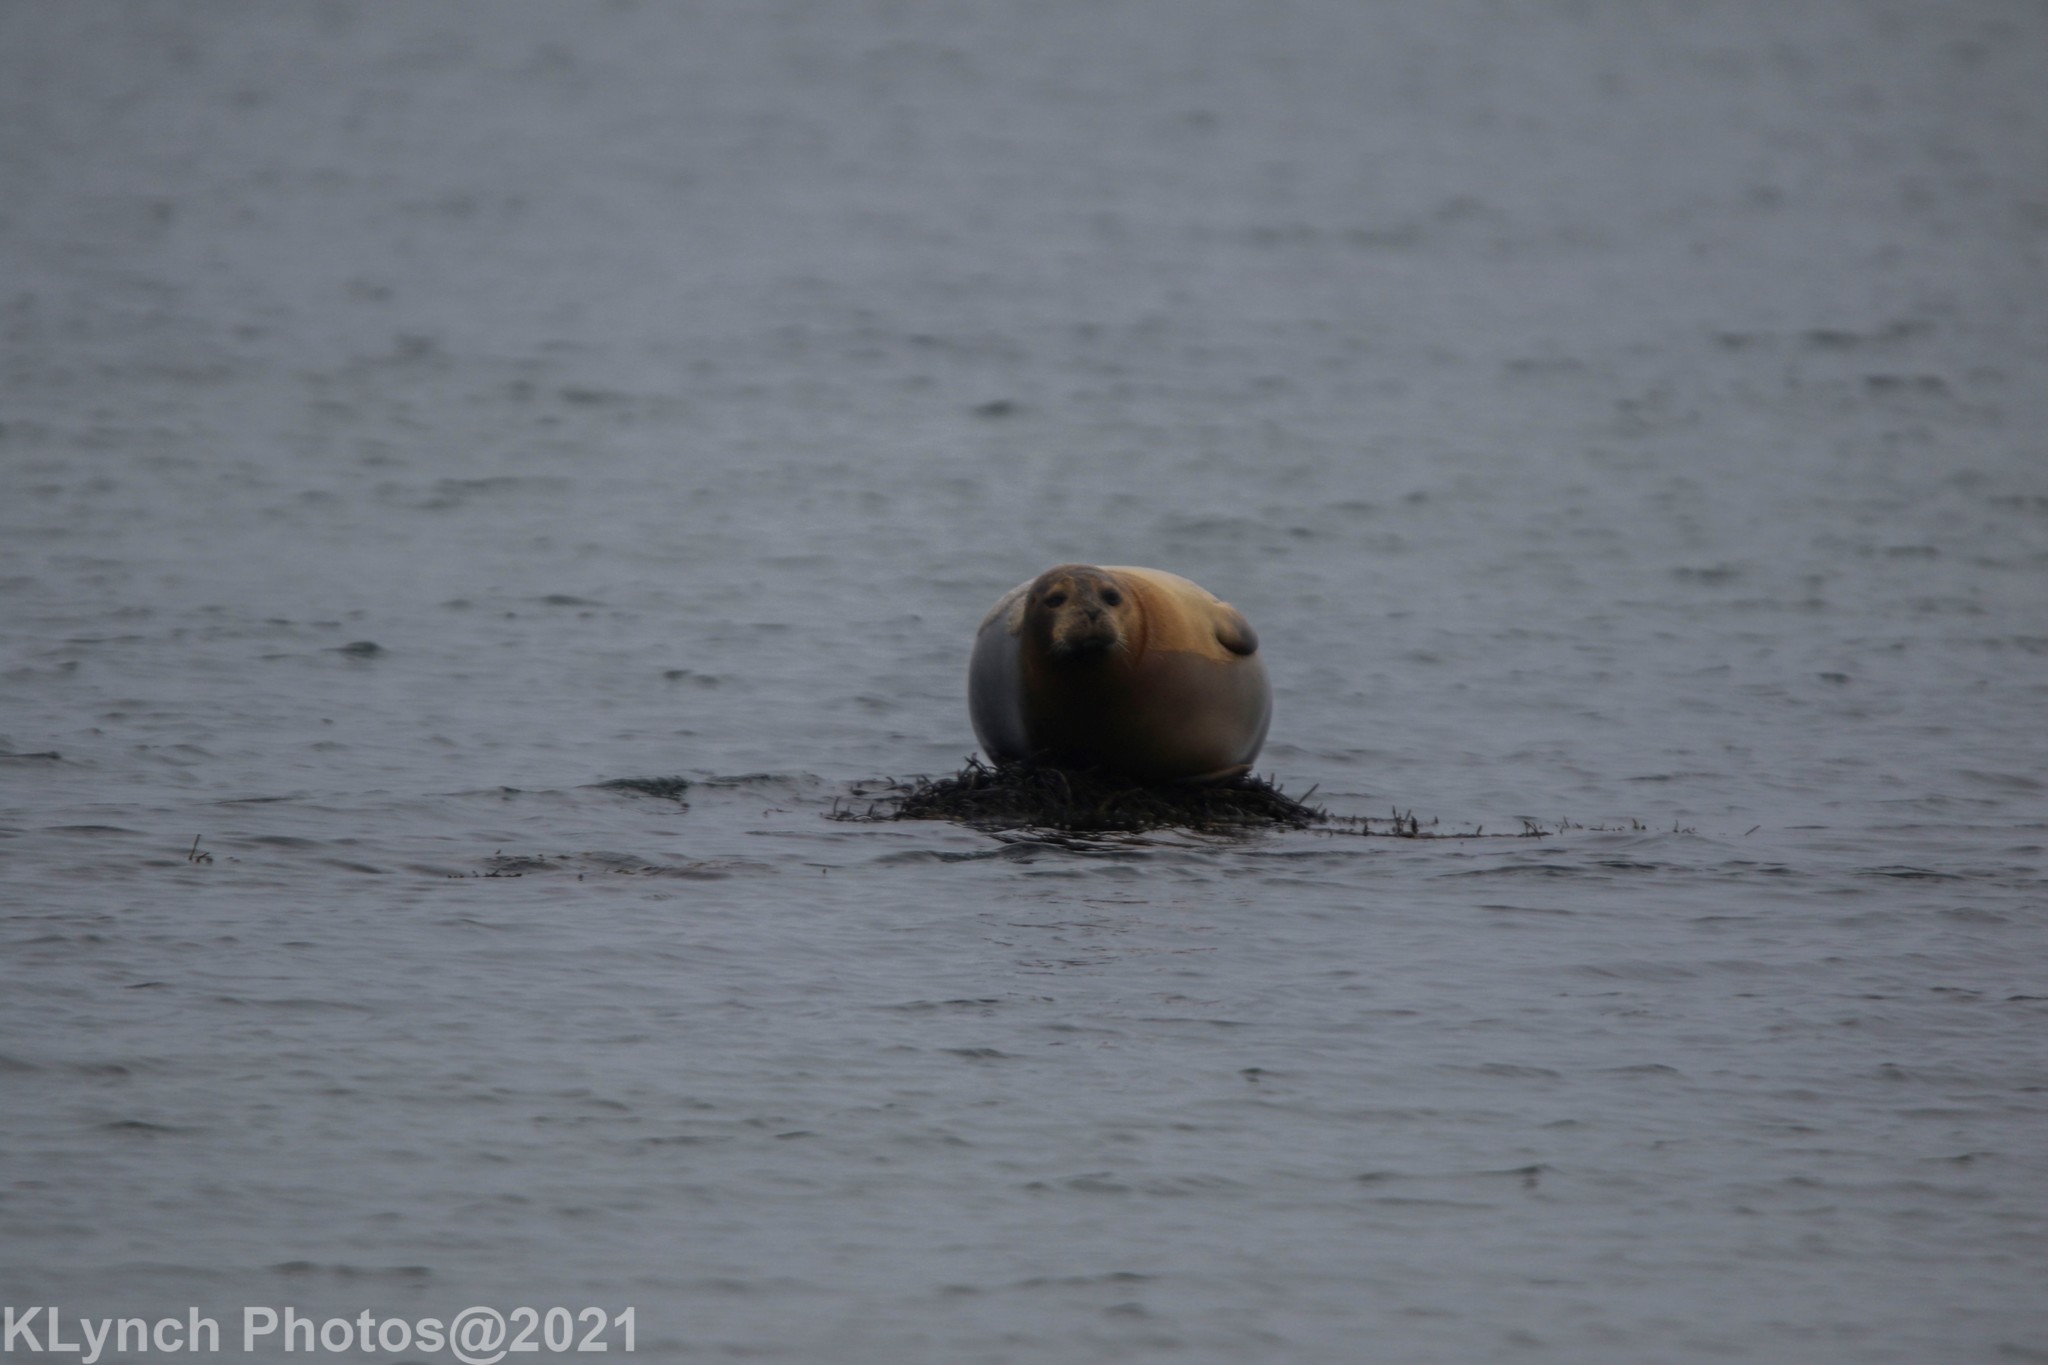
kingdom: Animalia
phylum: Chordata
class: Mammalia
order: Carnivora
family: Phocidae
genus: Phoca
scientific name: Phoca vitulina
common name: Harbor seal
